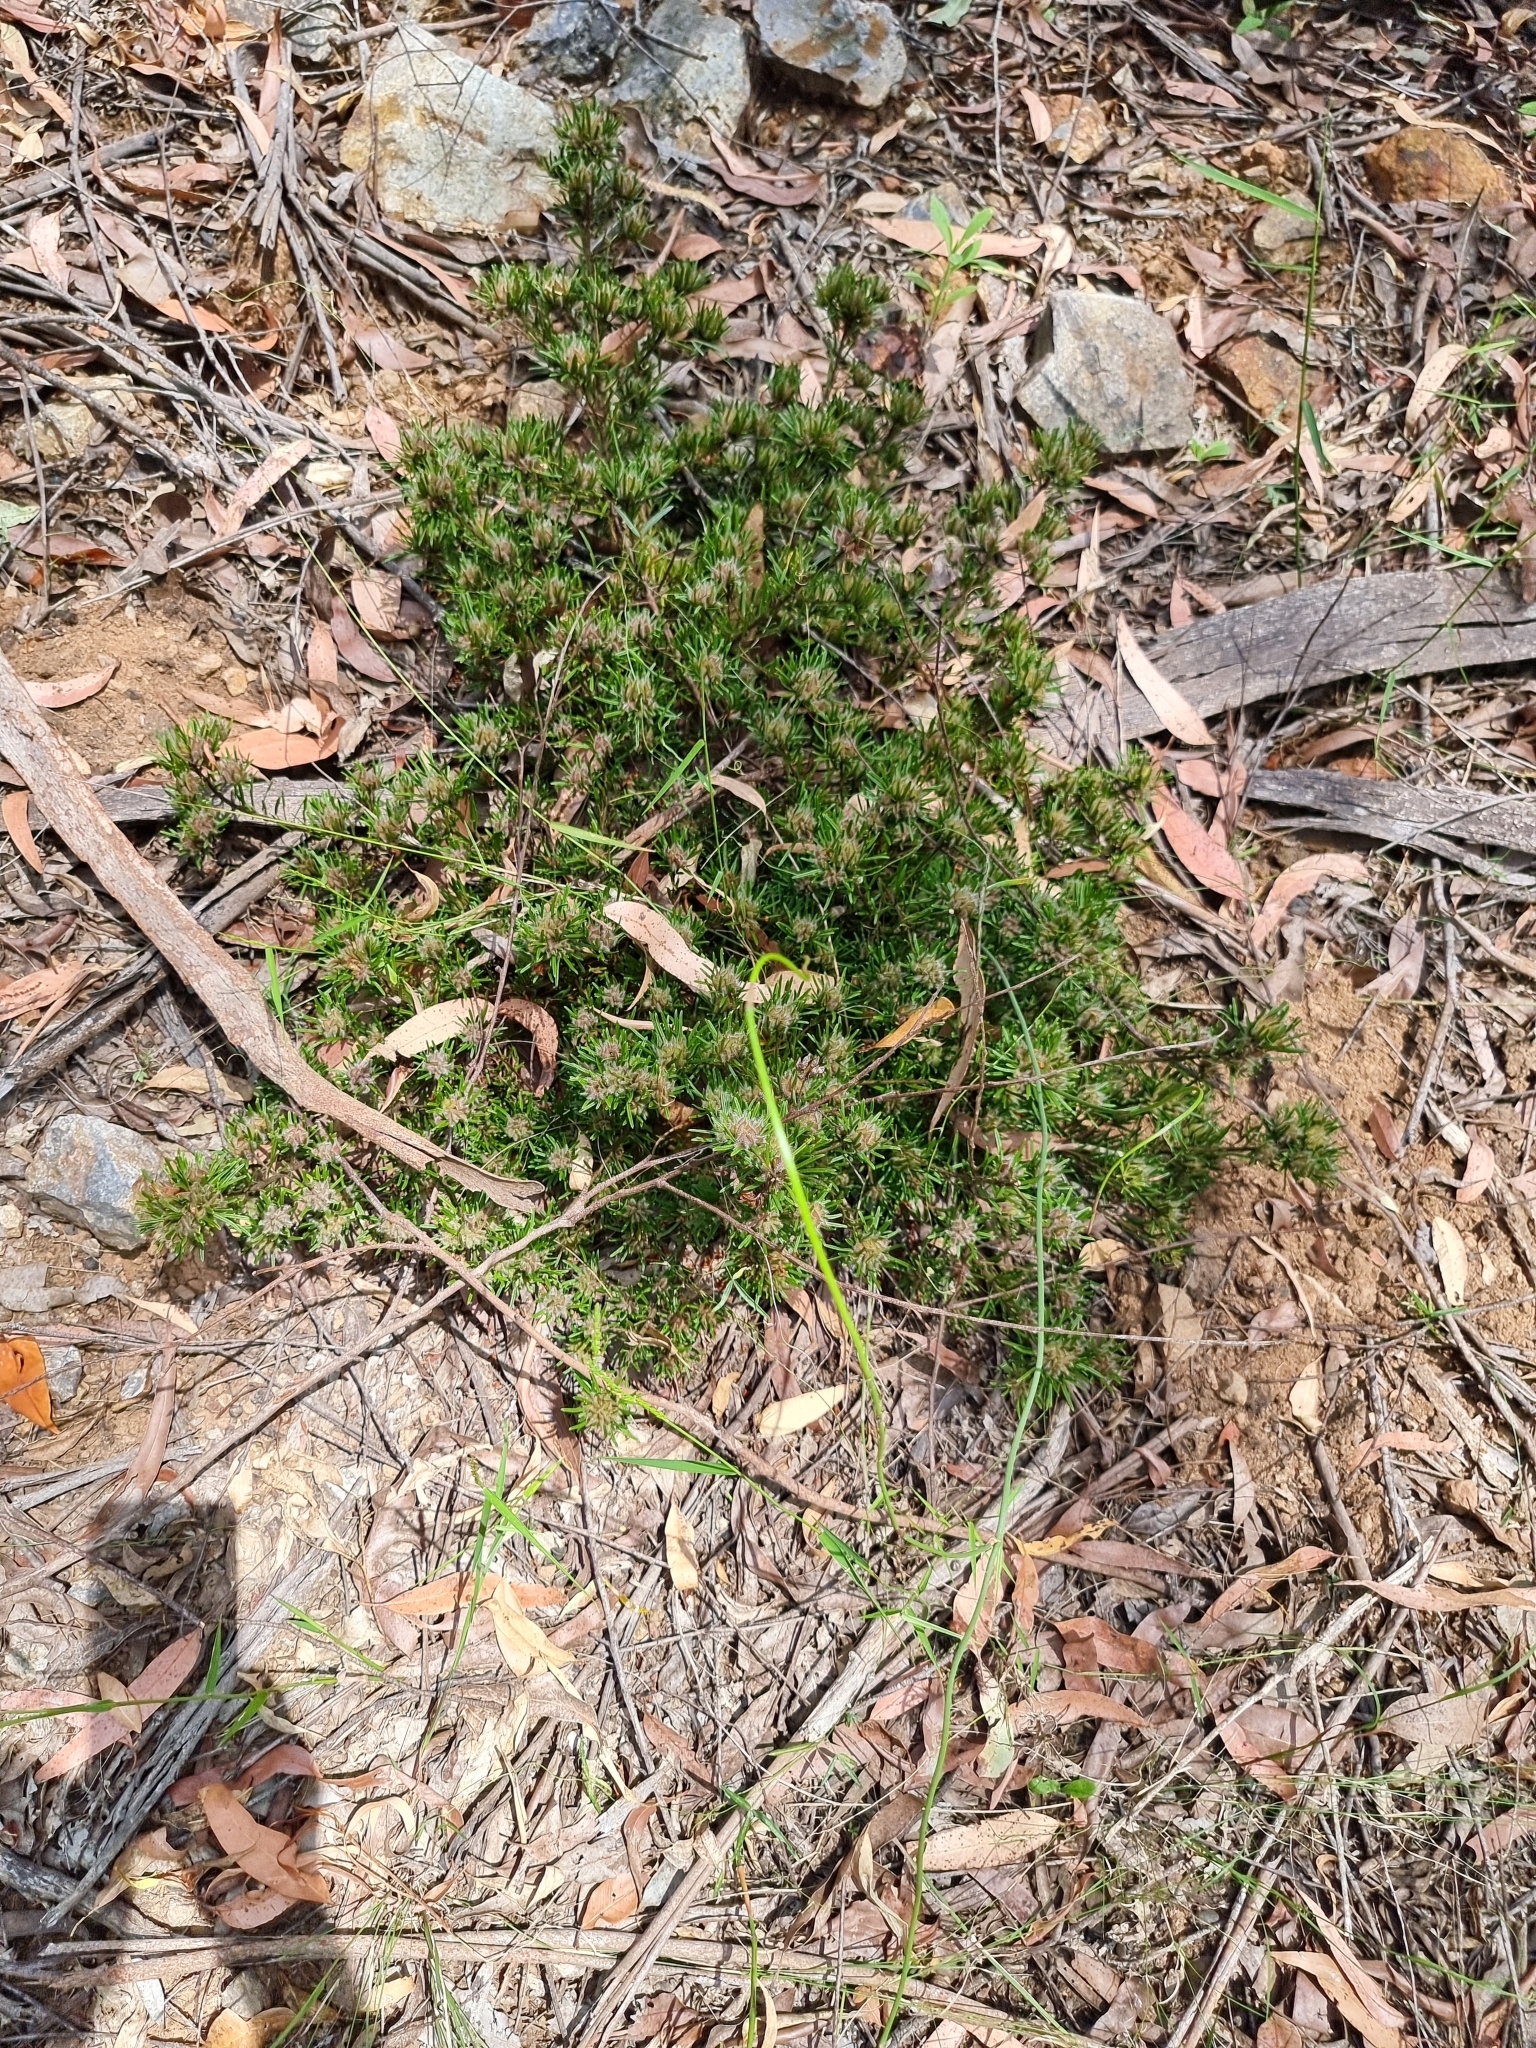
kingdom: Plantae
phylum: Tracheophyta
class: Magnoliopsida
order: Fabales
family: Fabaceae
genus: Pultenaea
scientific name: Pultenaea petiolaris
